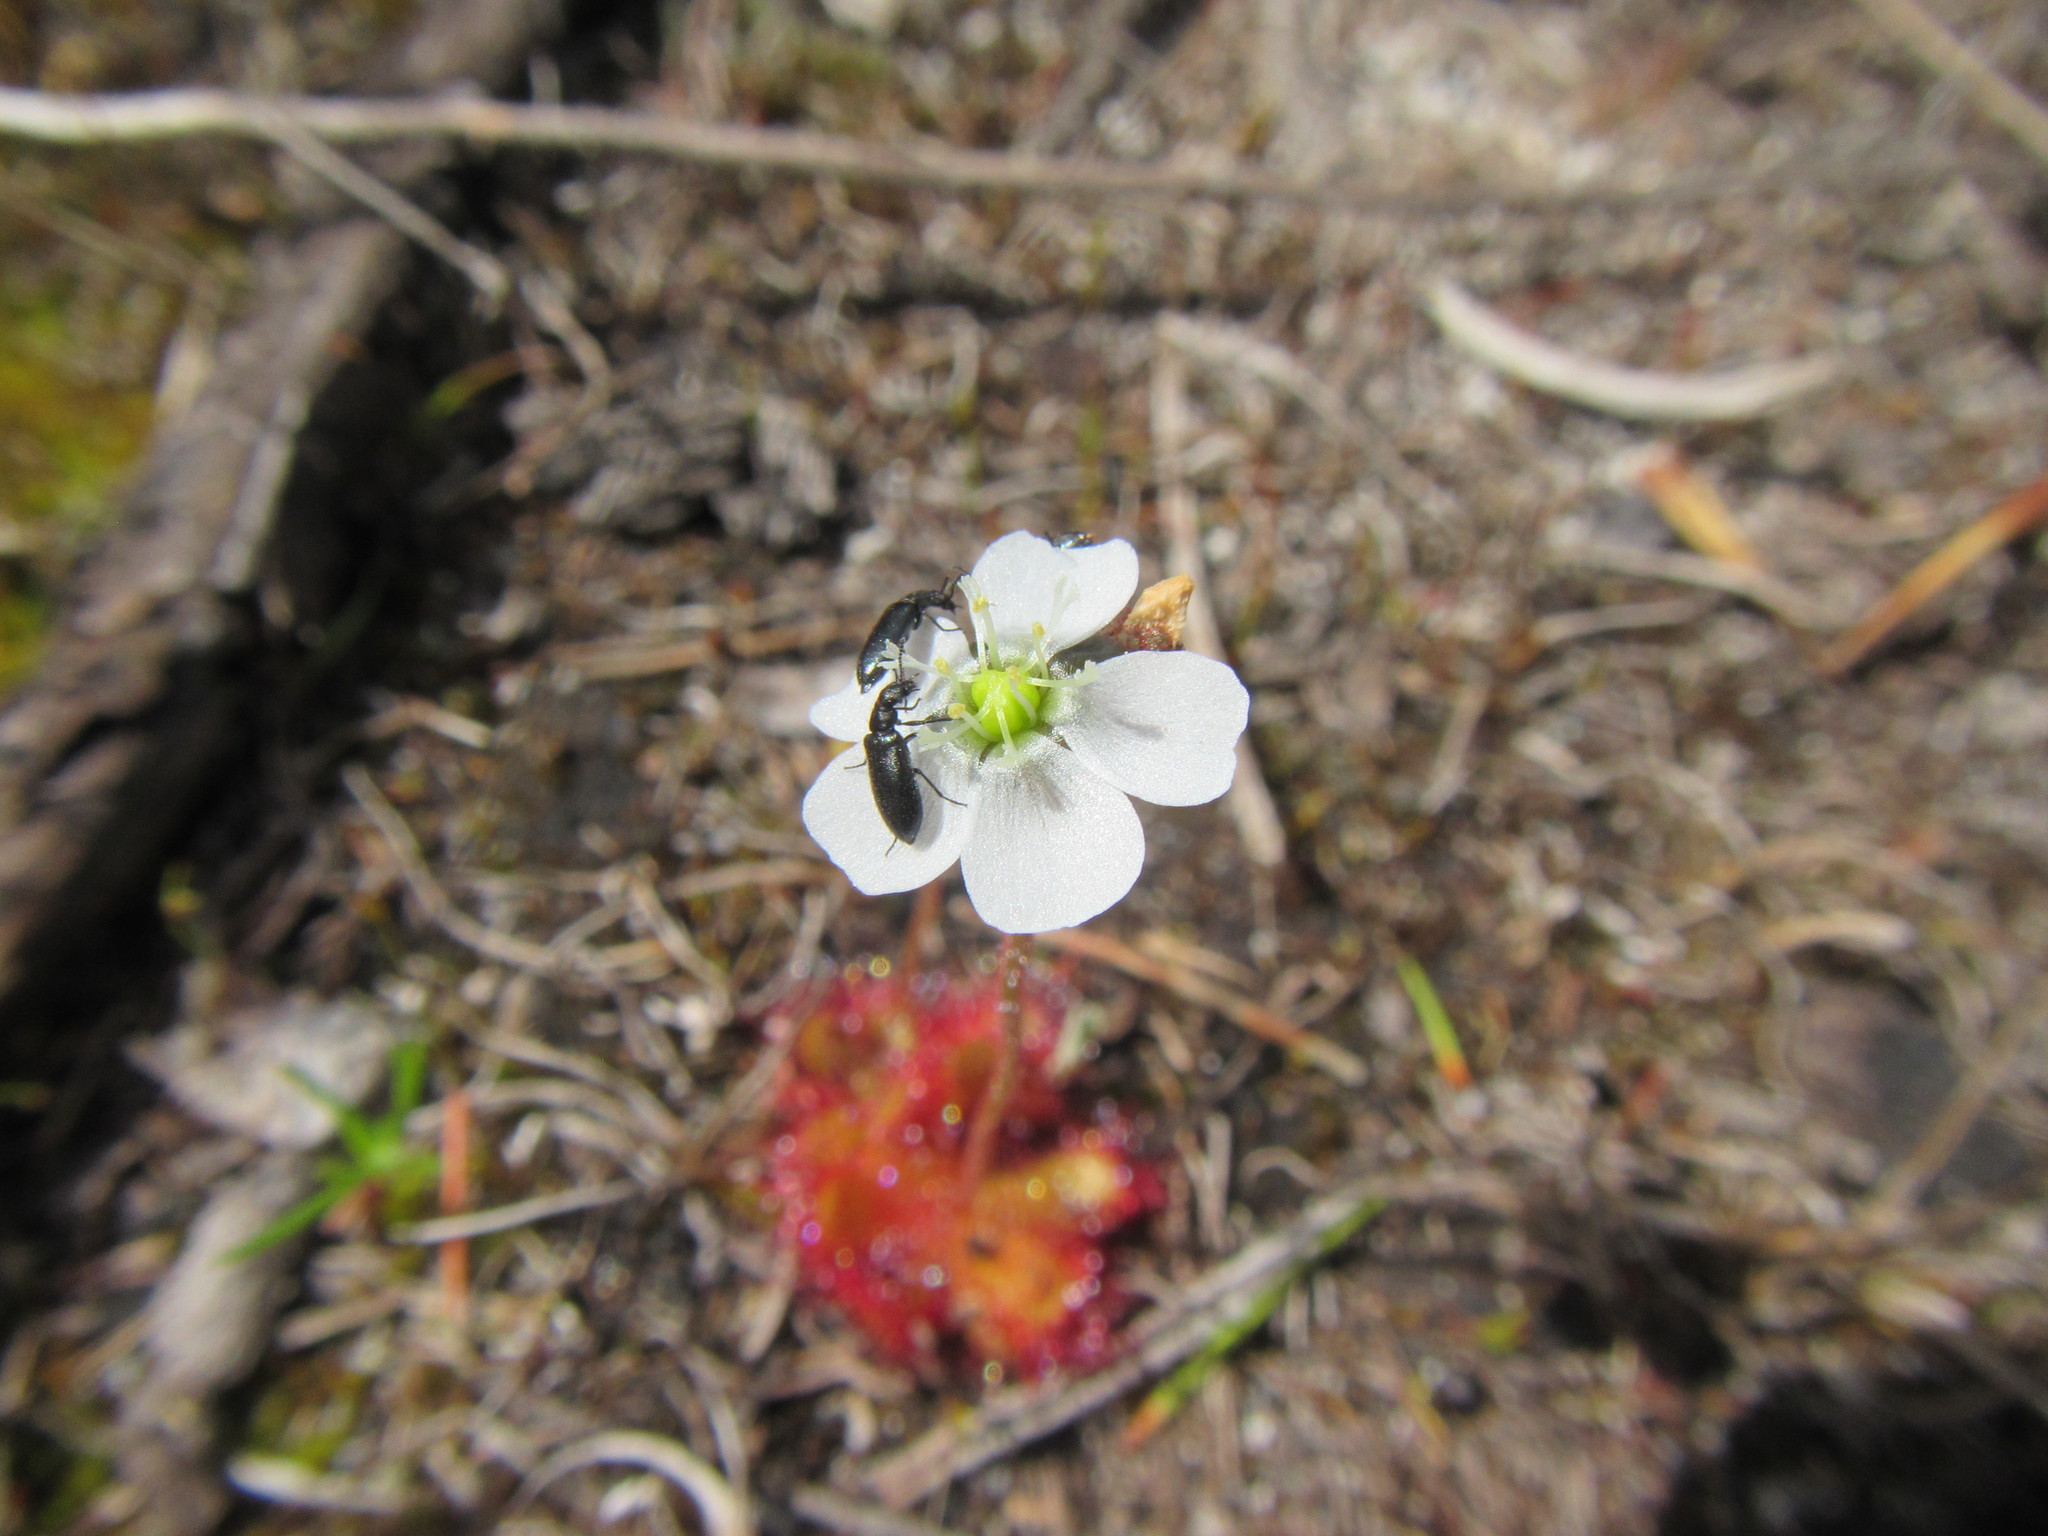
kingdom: Plantae
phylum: Tracheophyta
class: Magnoliopsida
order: Caryophyllales
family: Droseraceae
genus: Drosera
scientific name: Drosera trinervia
